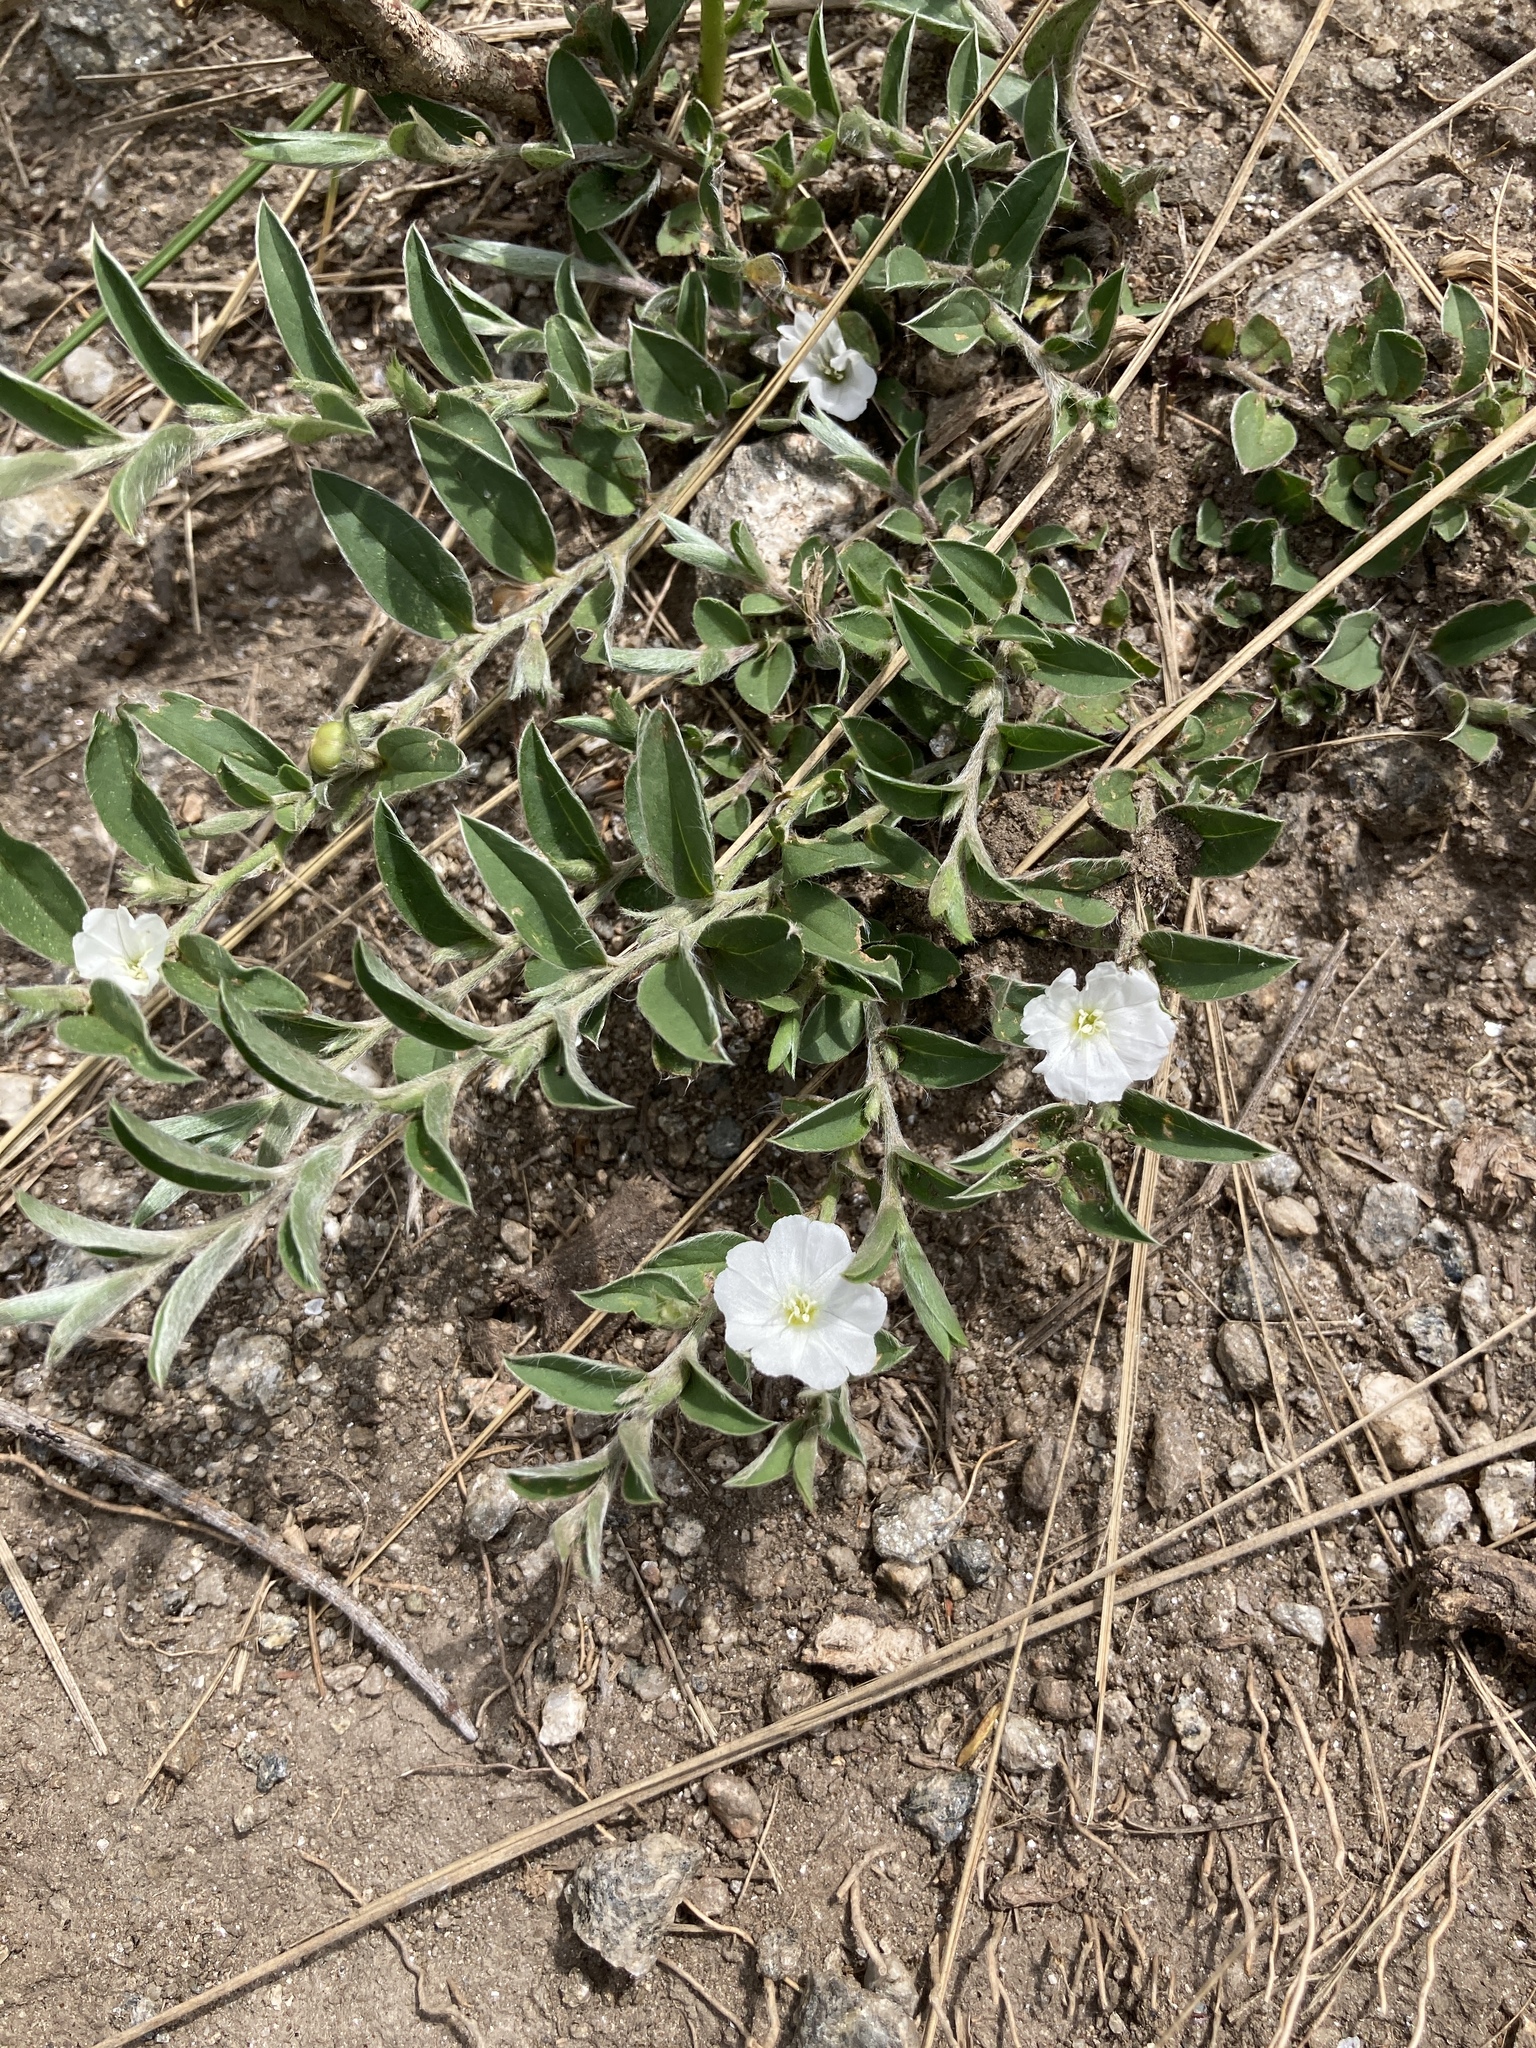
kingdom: Plantae
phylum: Tracheophyta
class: Magnoliopsida
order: Solanales
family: Convolvulaceae
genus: Evolvulus
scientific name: Evolvulus sericeus
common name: Blue dots
